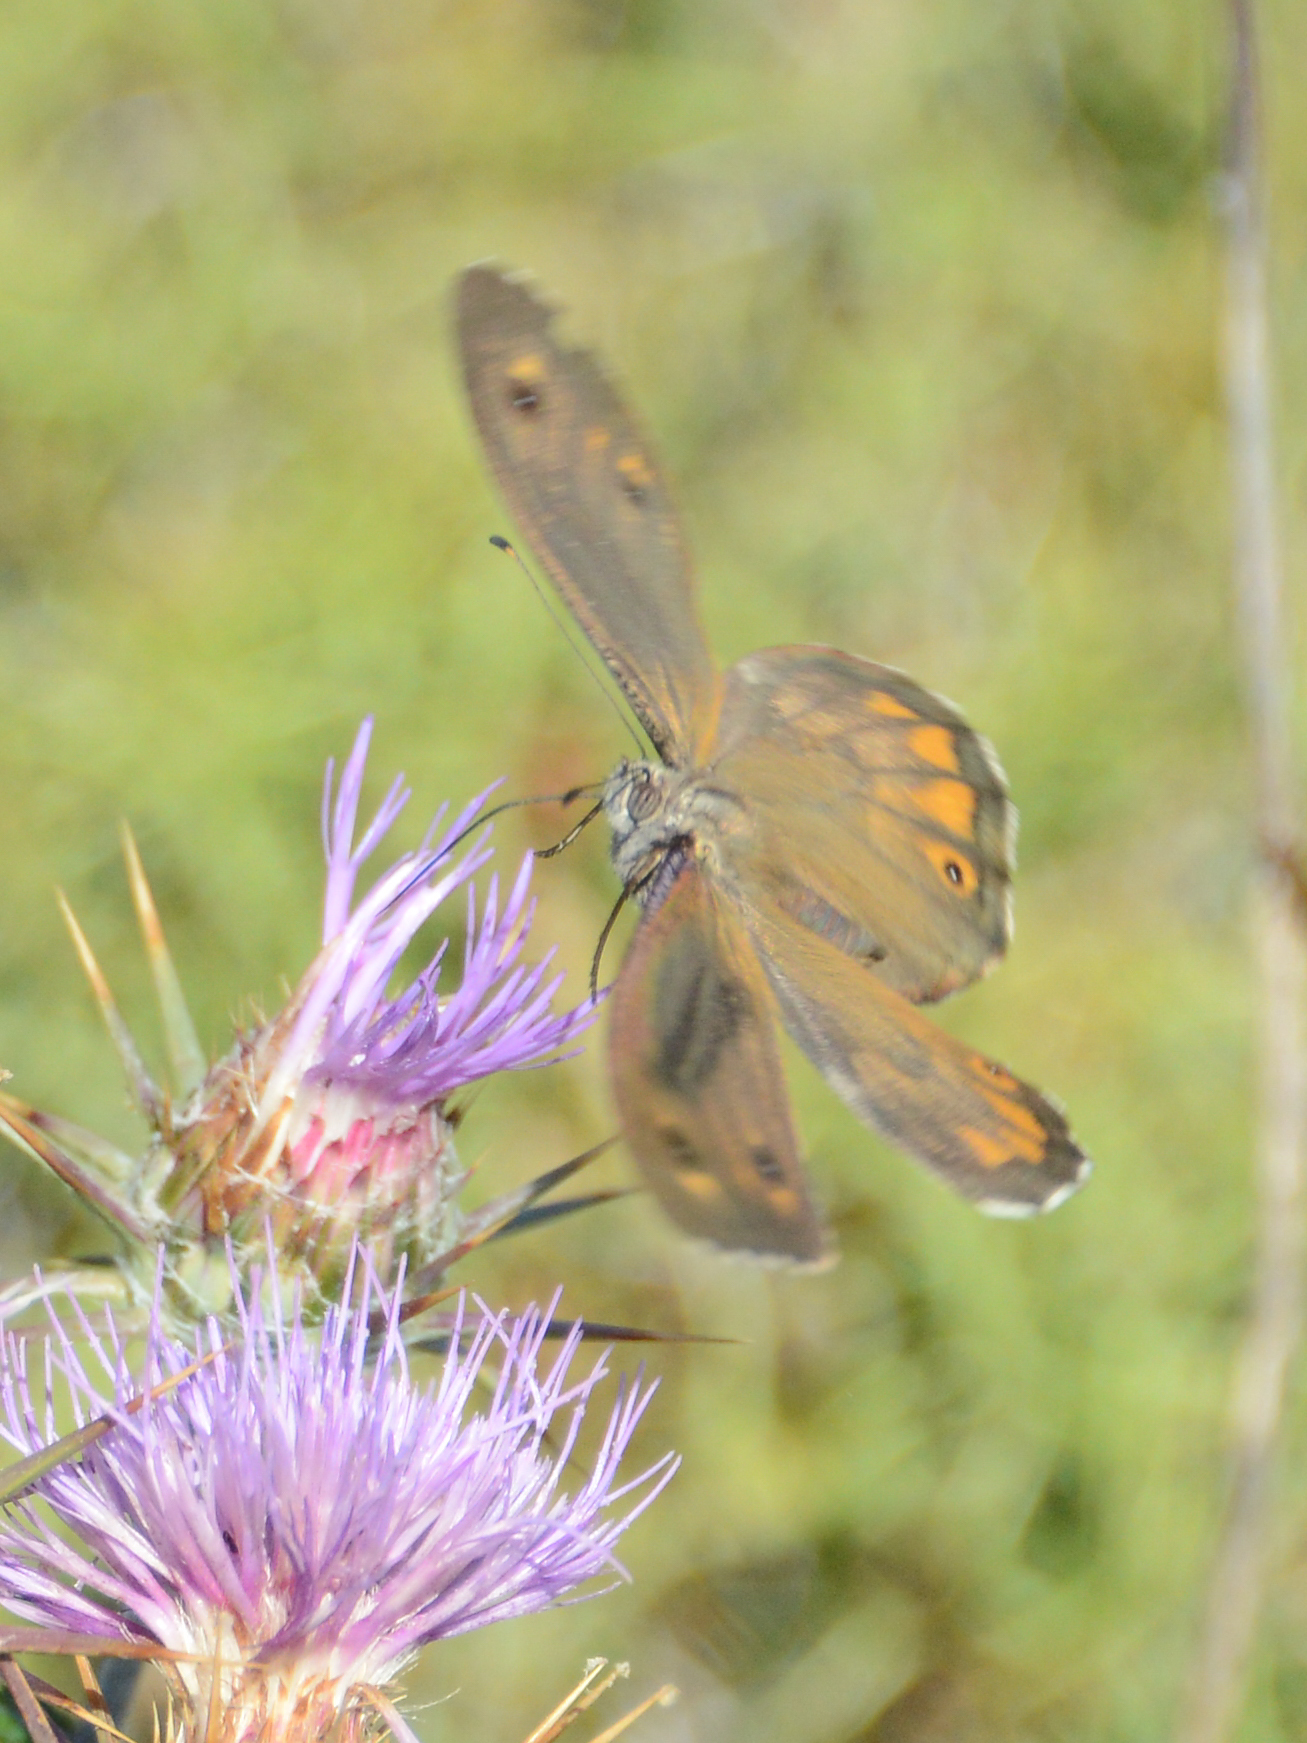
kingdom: Animalia
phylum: Arthropoda
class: Insecta
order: Lepidoptera
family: Nymphalidae
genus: Hipparchia
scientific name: Hipparchia cretica
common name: Cretan grayling
